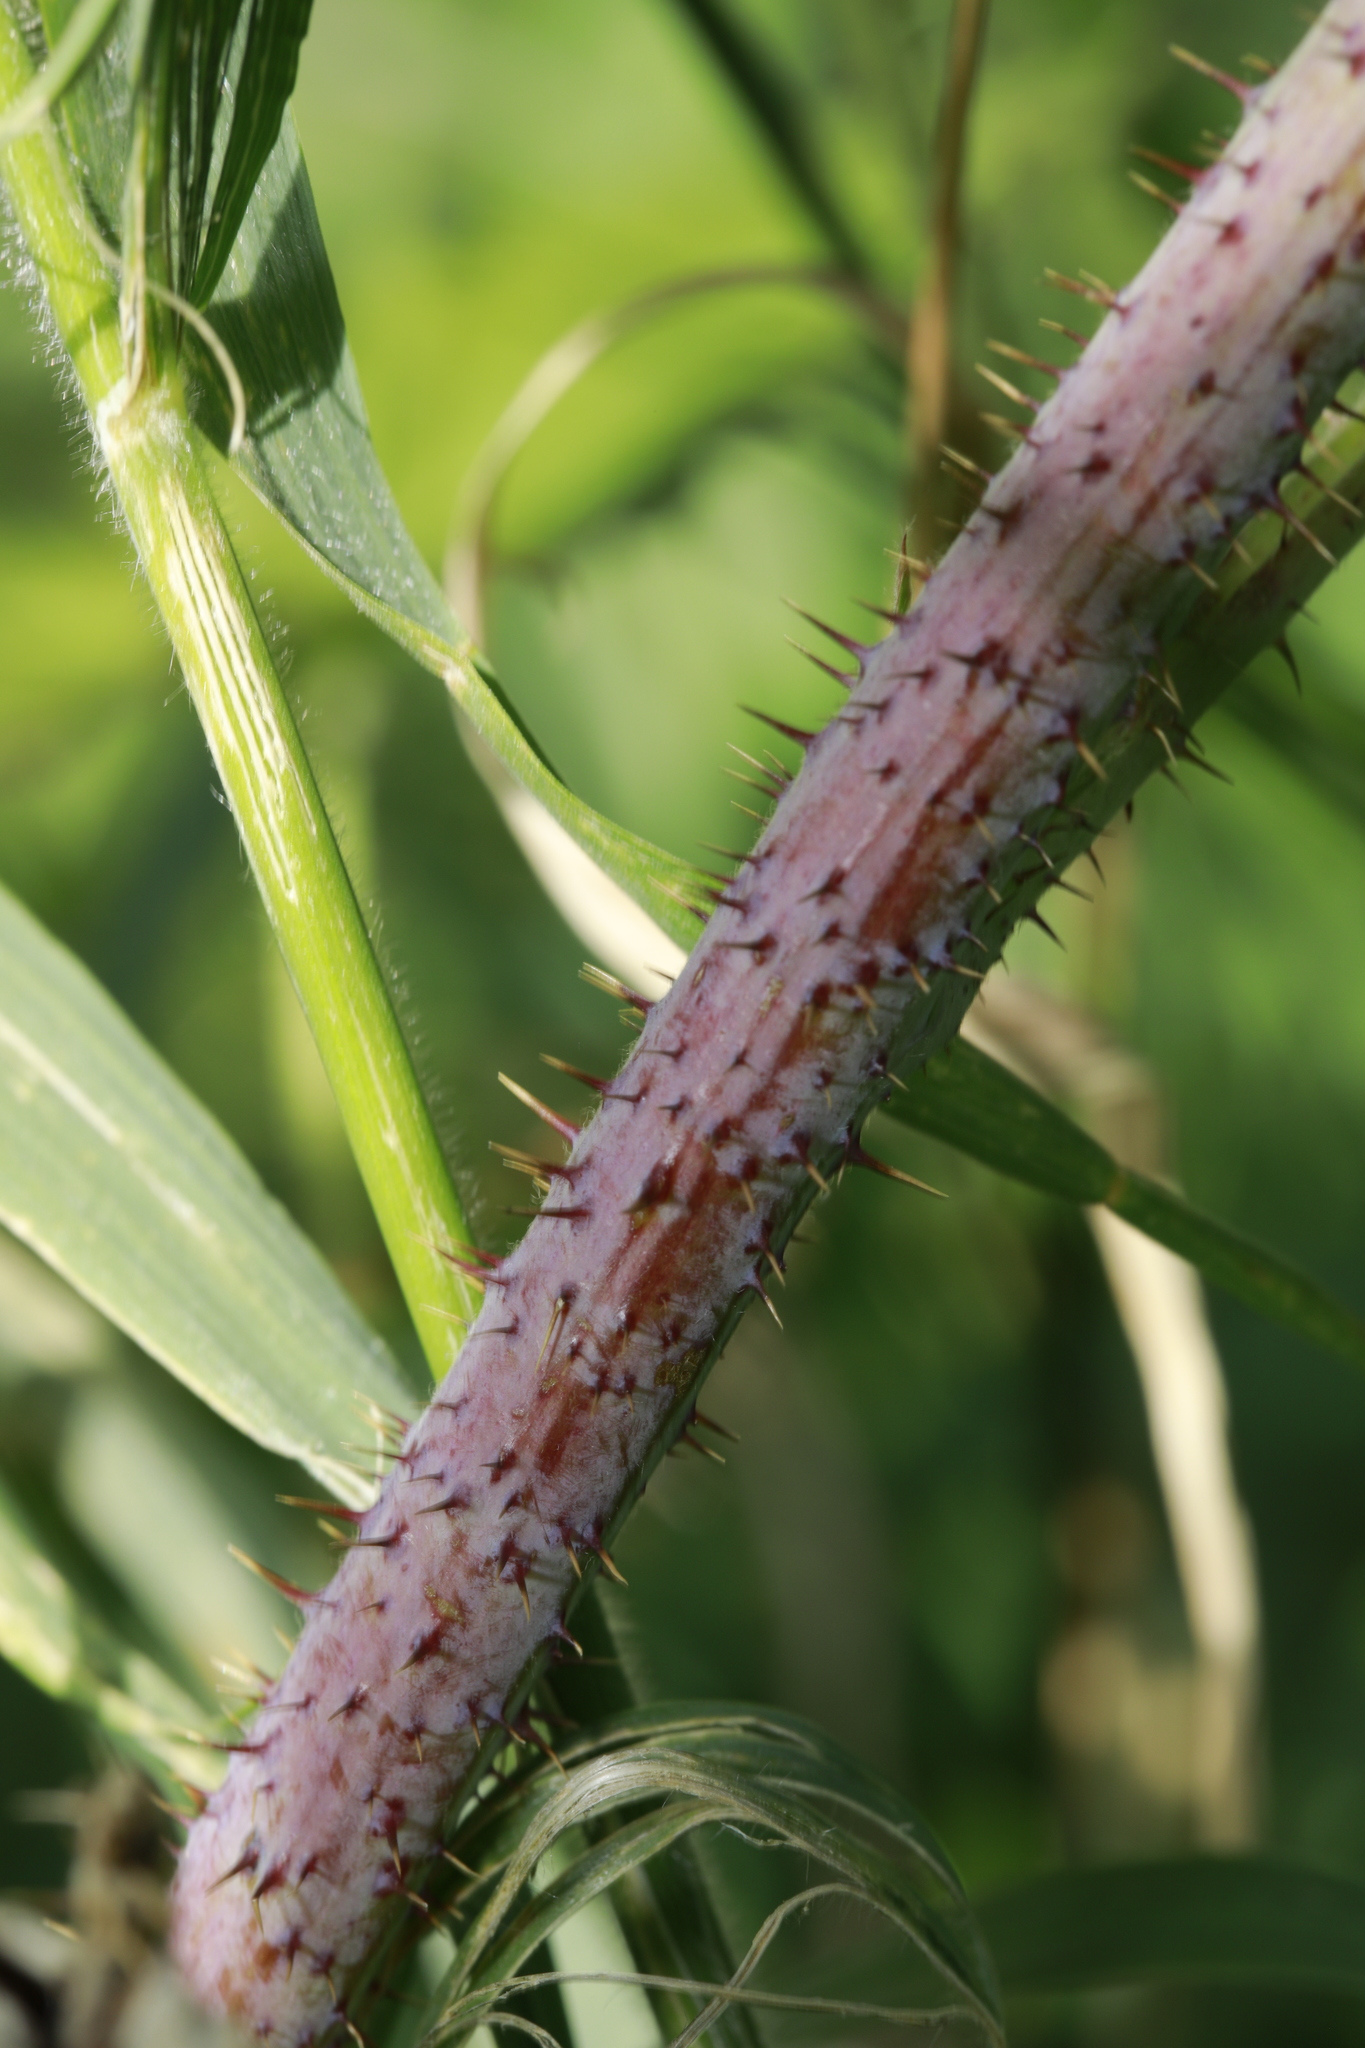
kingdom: Plantae
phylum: Tracheophyta
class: Magnoliopsida
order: Rosales
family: Rosaceae
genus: Rubus
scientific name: Rubus loganobaccus
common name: Loganberry
